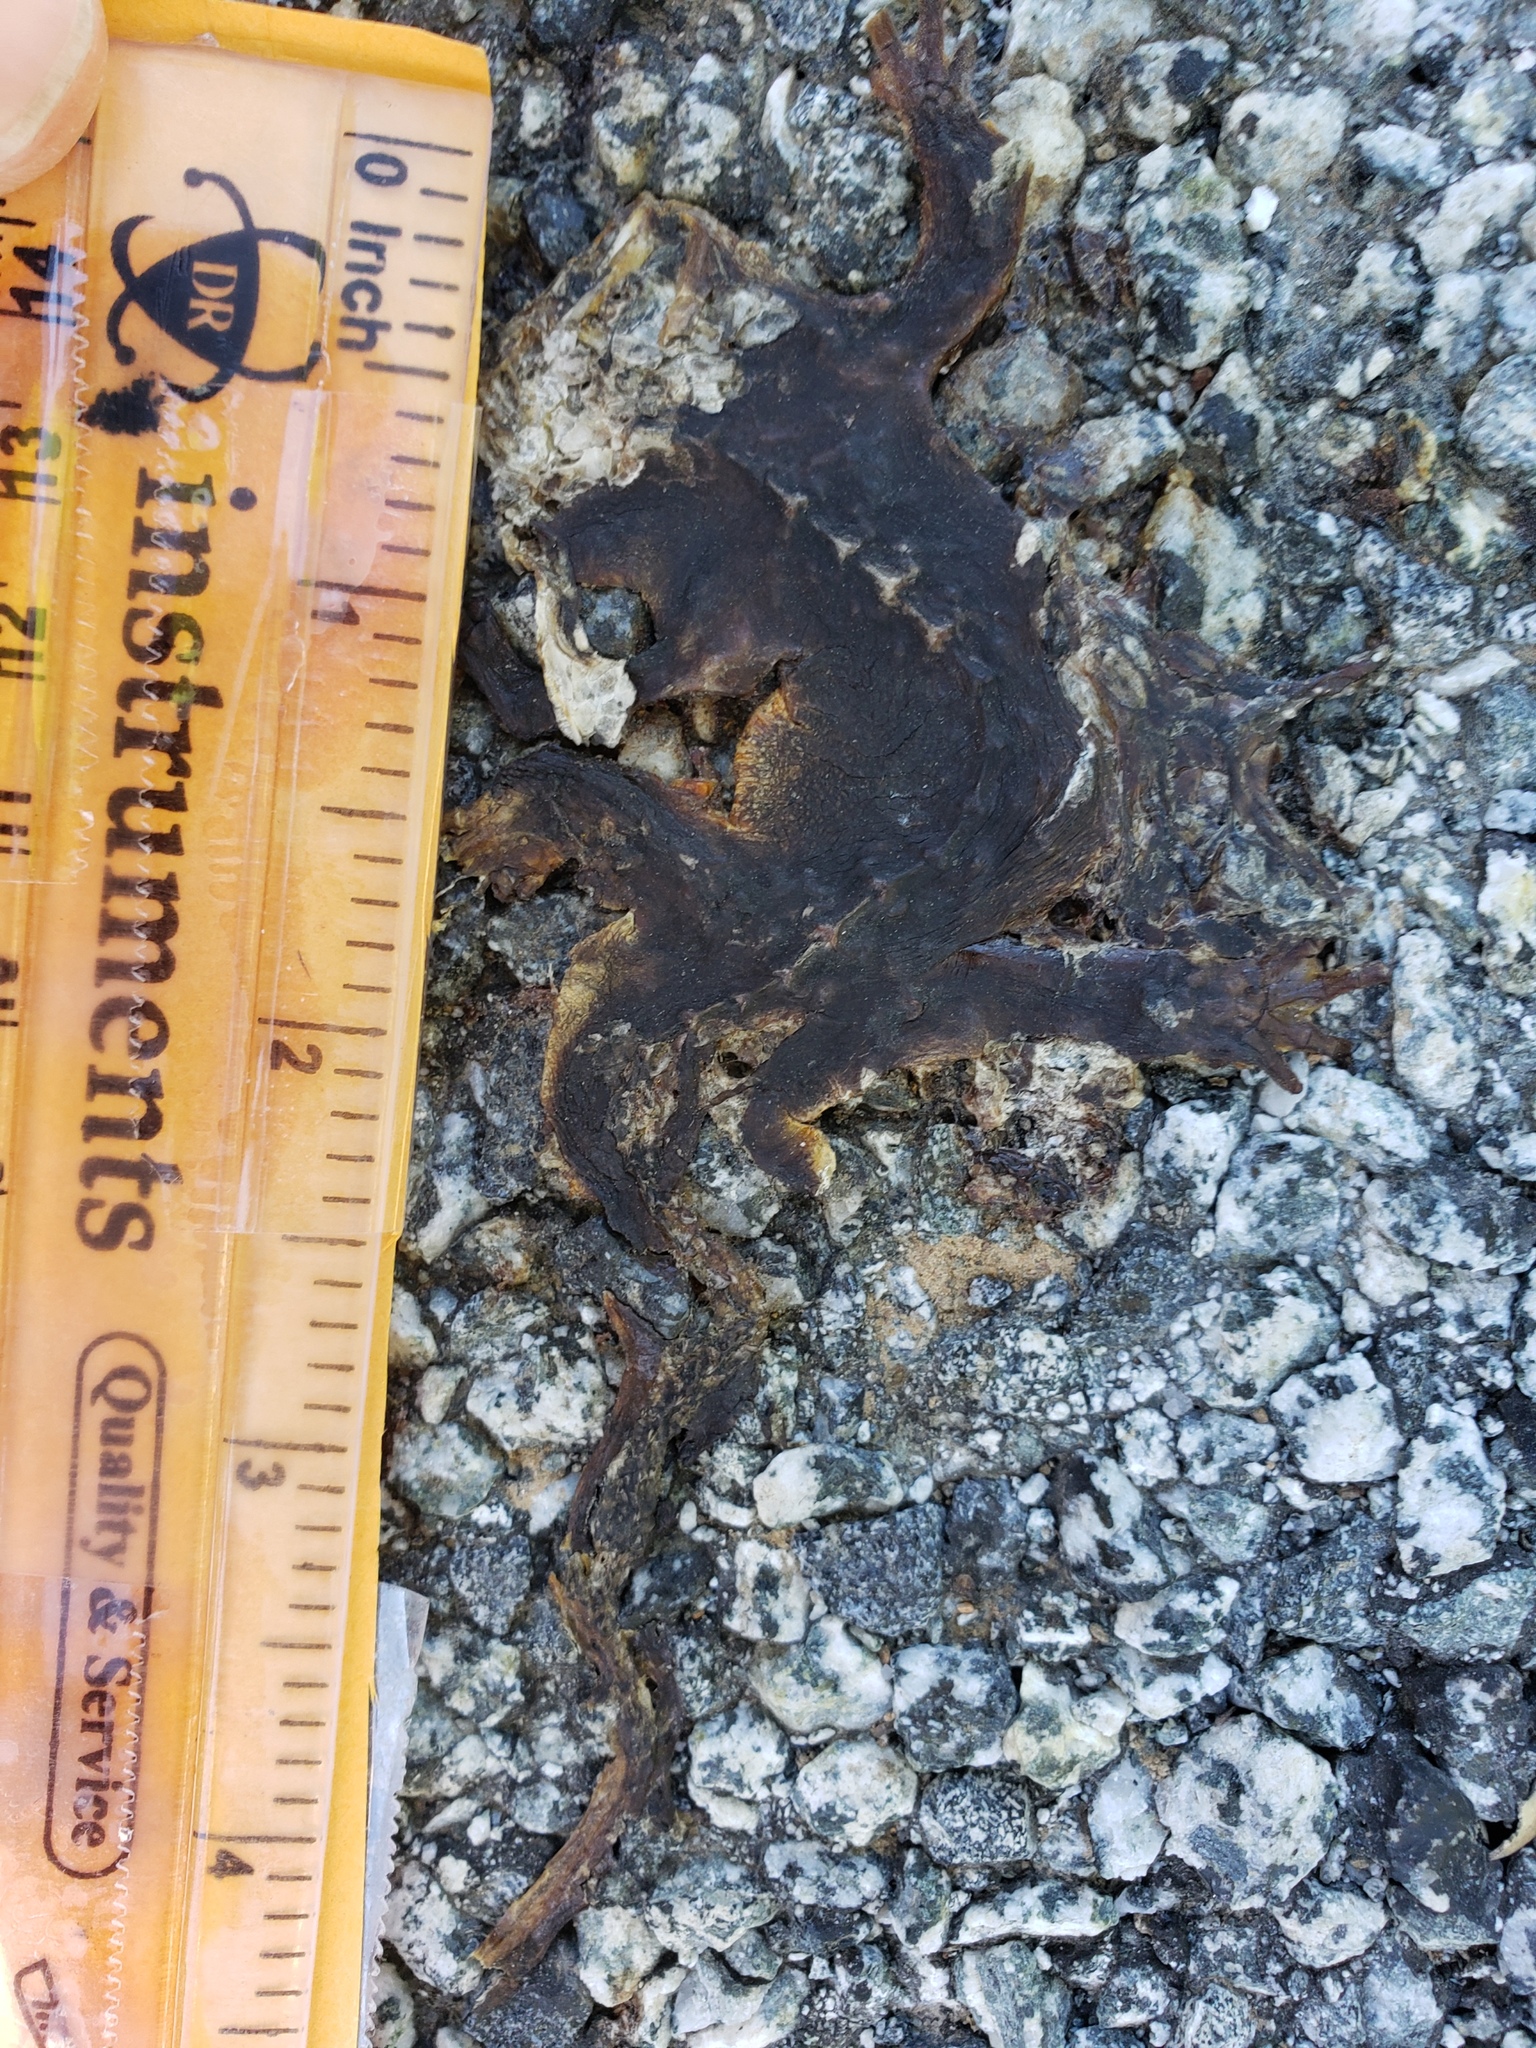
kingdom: Animalia
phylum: Chordata
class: Amphibia
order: Caudata
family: Salamandridae
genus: Taricha
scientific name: Taricha
